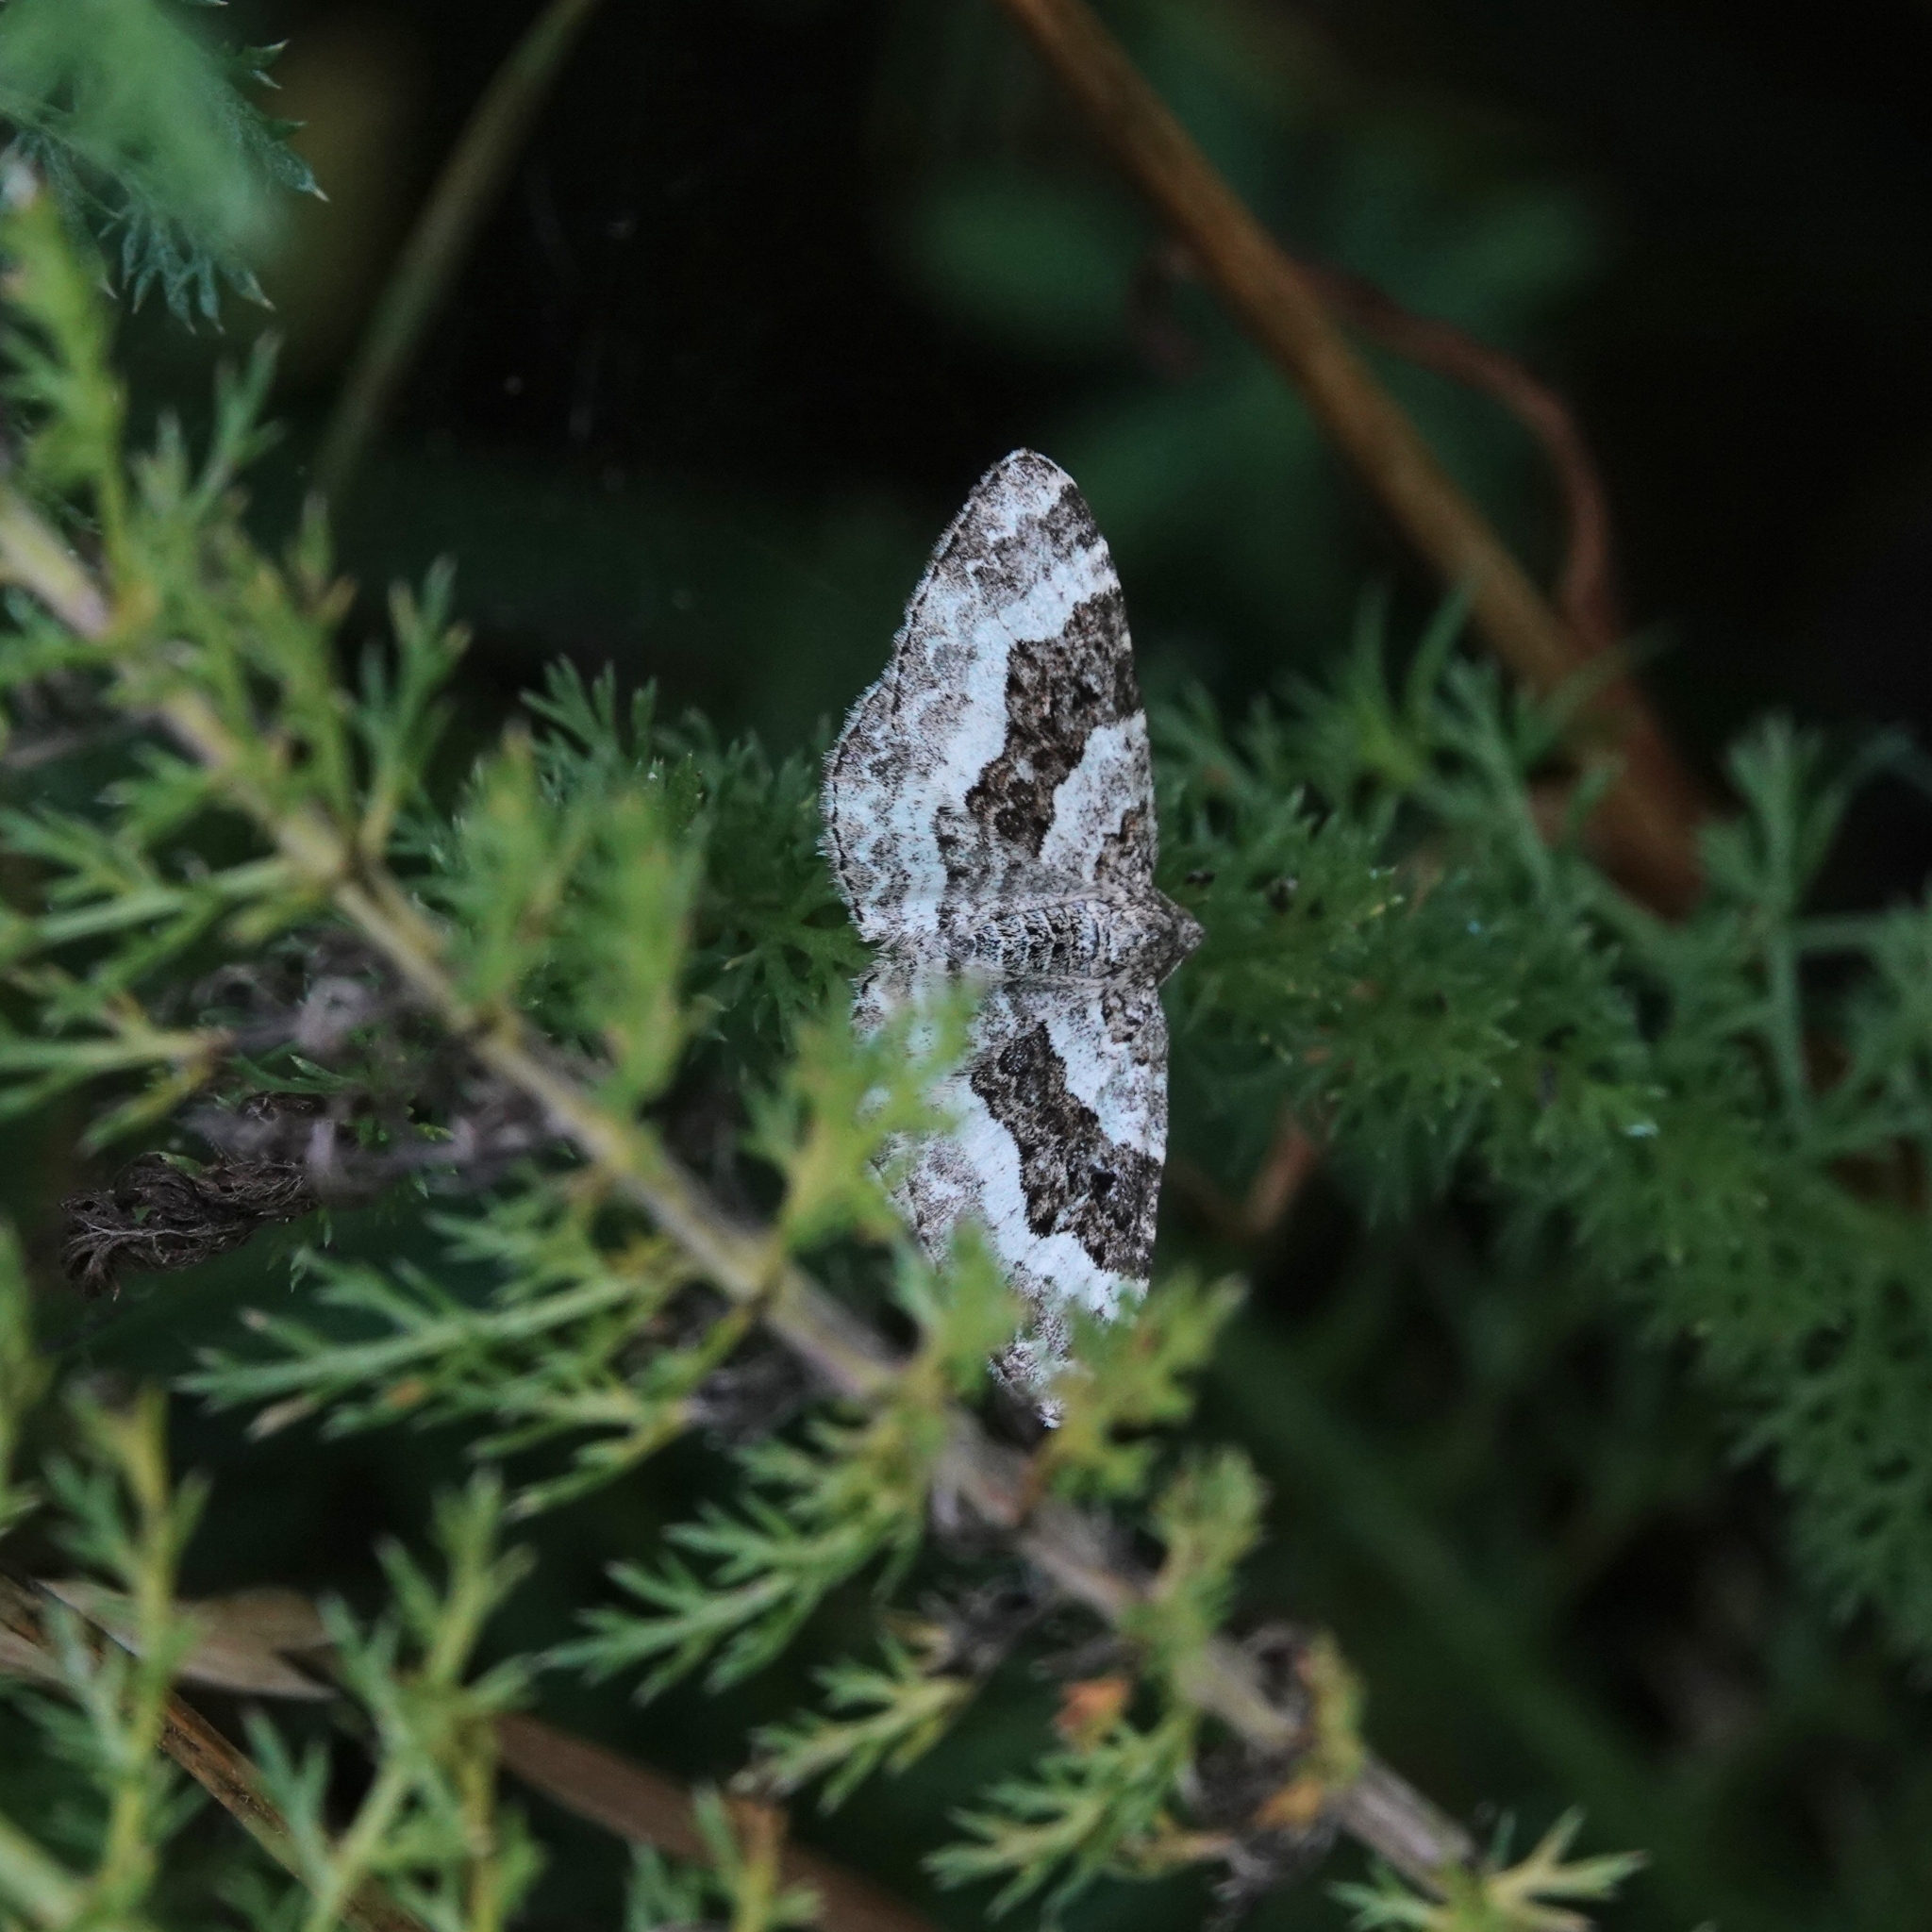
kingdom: Animalia
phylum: Arthropoda
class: Insecta
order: Lepidoptera
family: Geometridae
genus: Epirrhoe
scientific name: Epirrhoe alternata
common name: Common carpet
